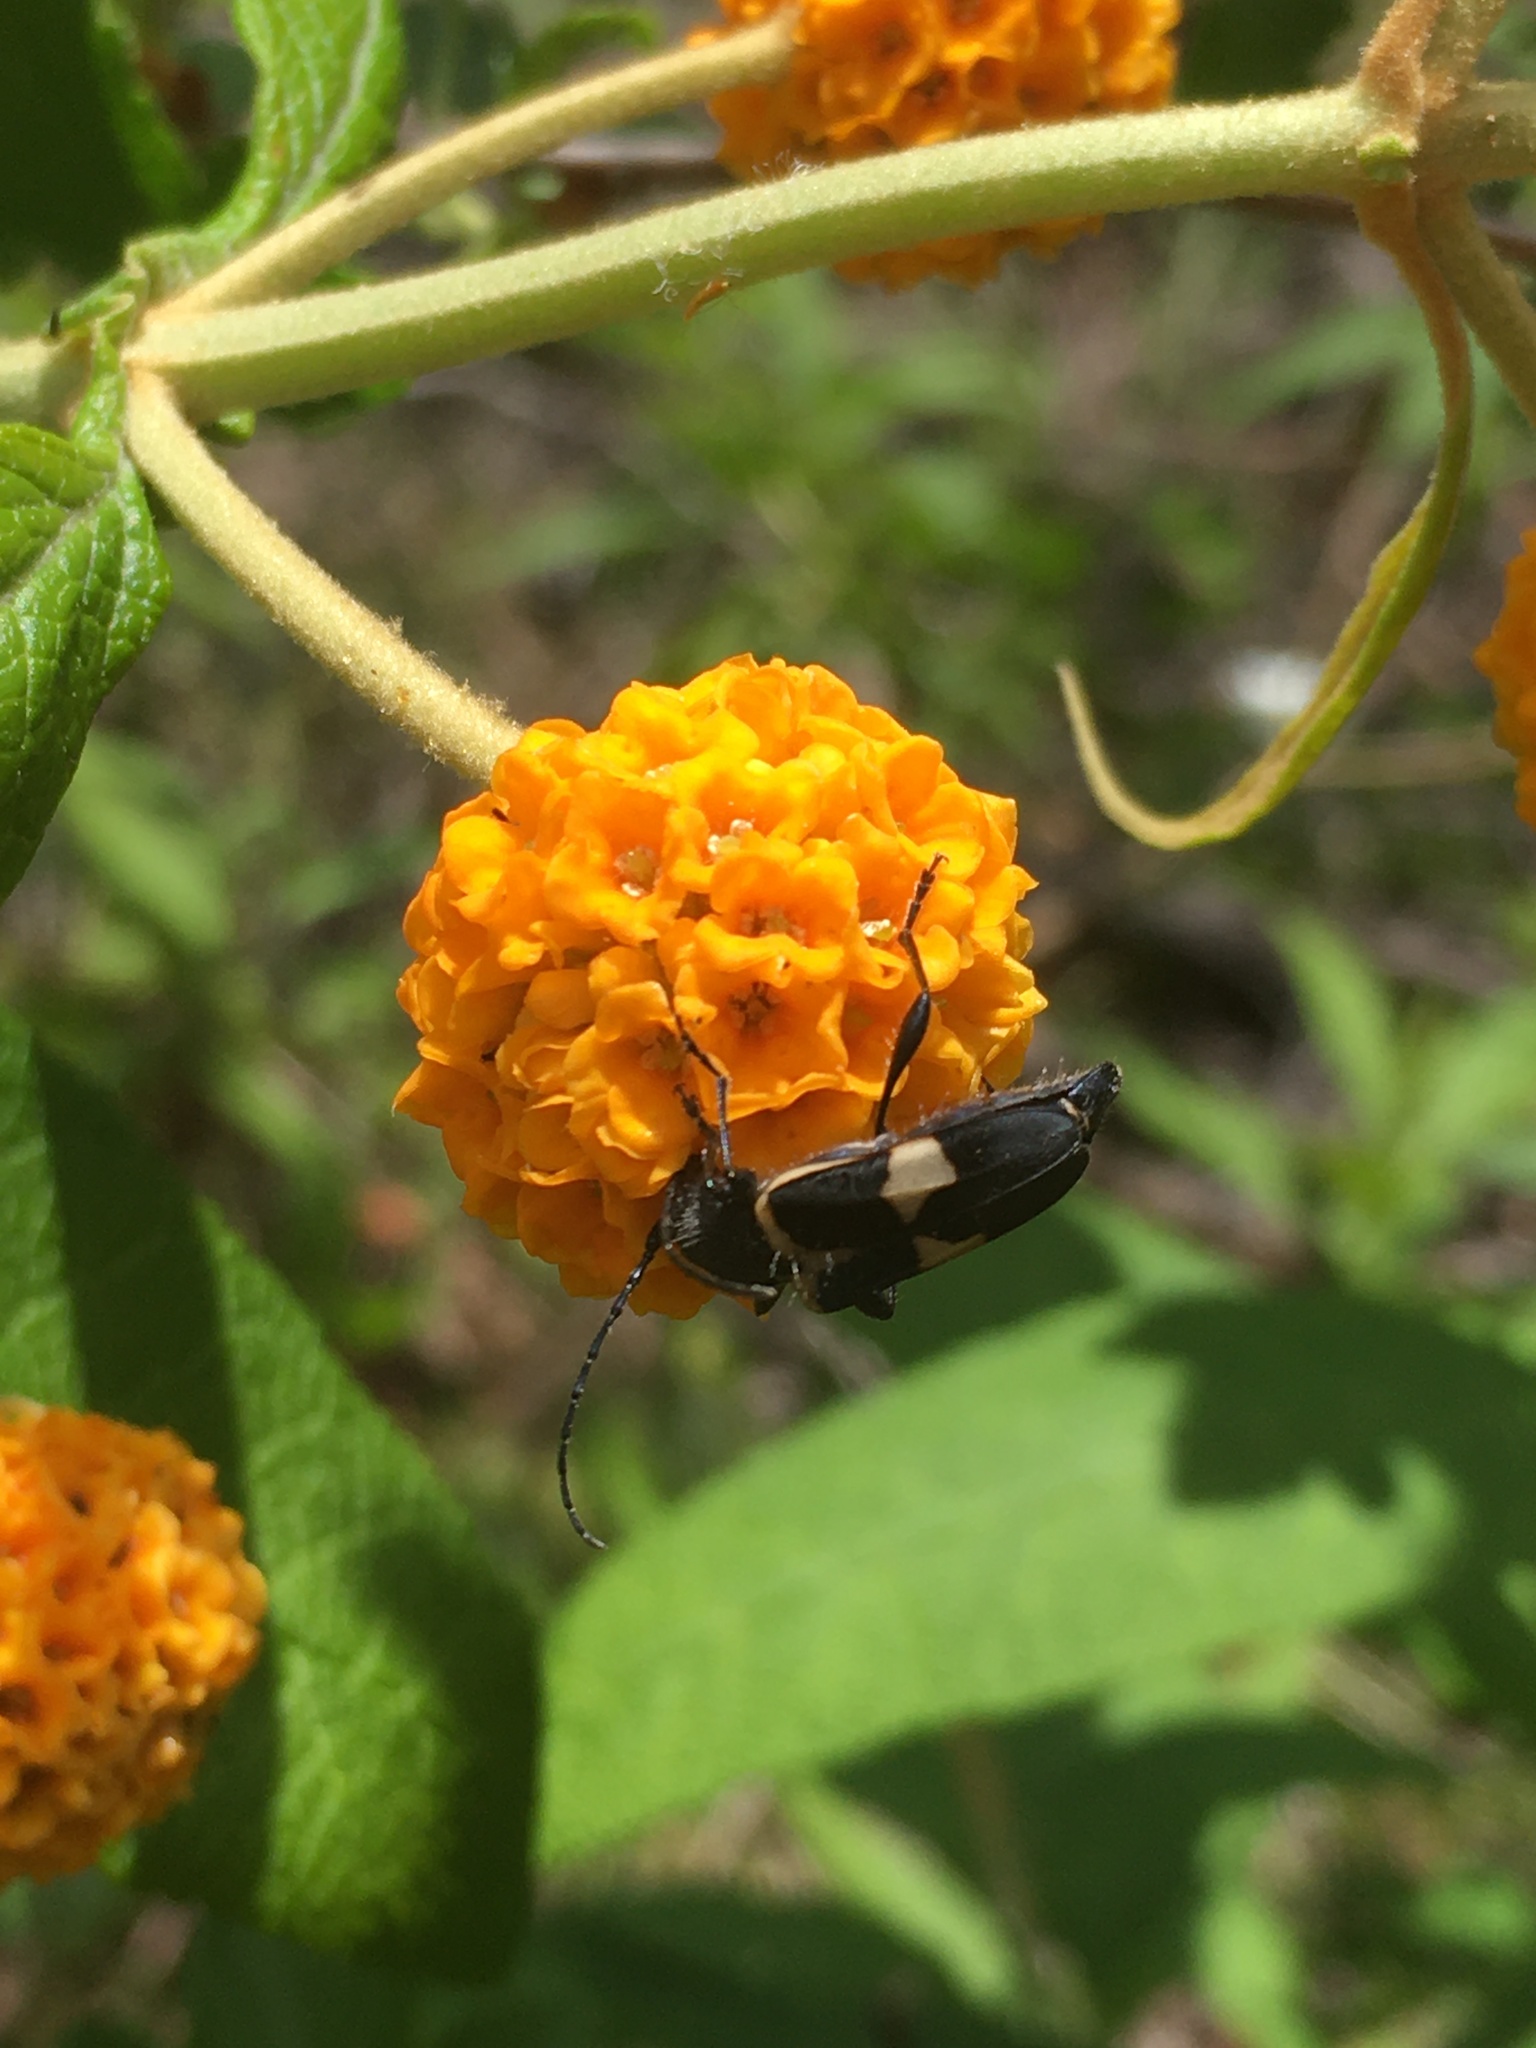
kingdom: Animalia
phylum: Arthropoda
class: Insecta
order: Coleoptera
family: Cerambycidae
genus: Calydon
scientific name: Calydon submetallicum
